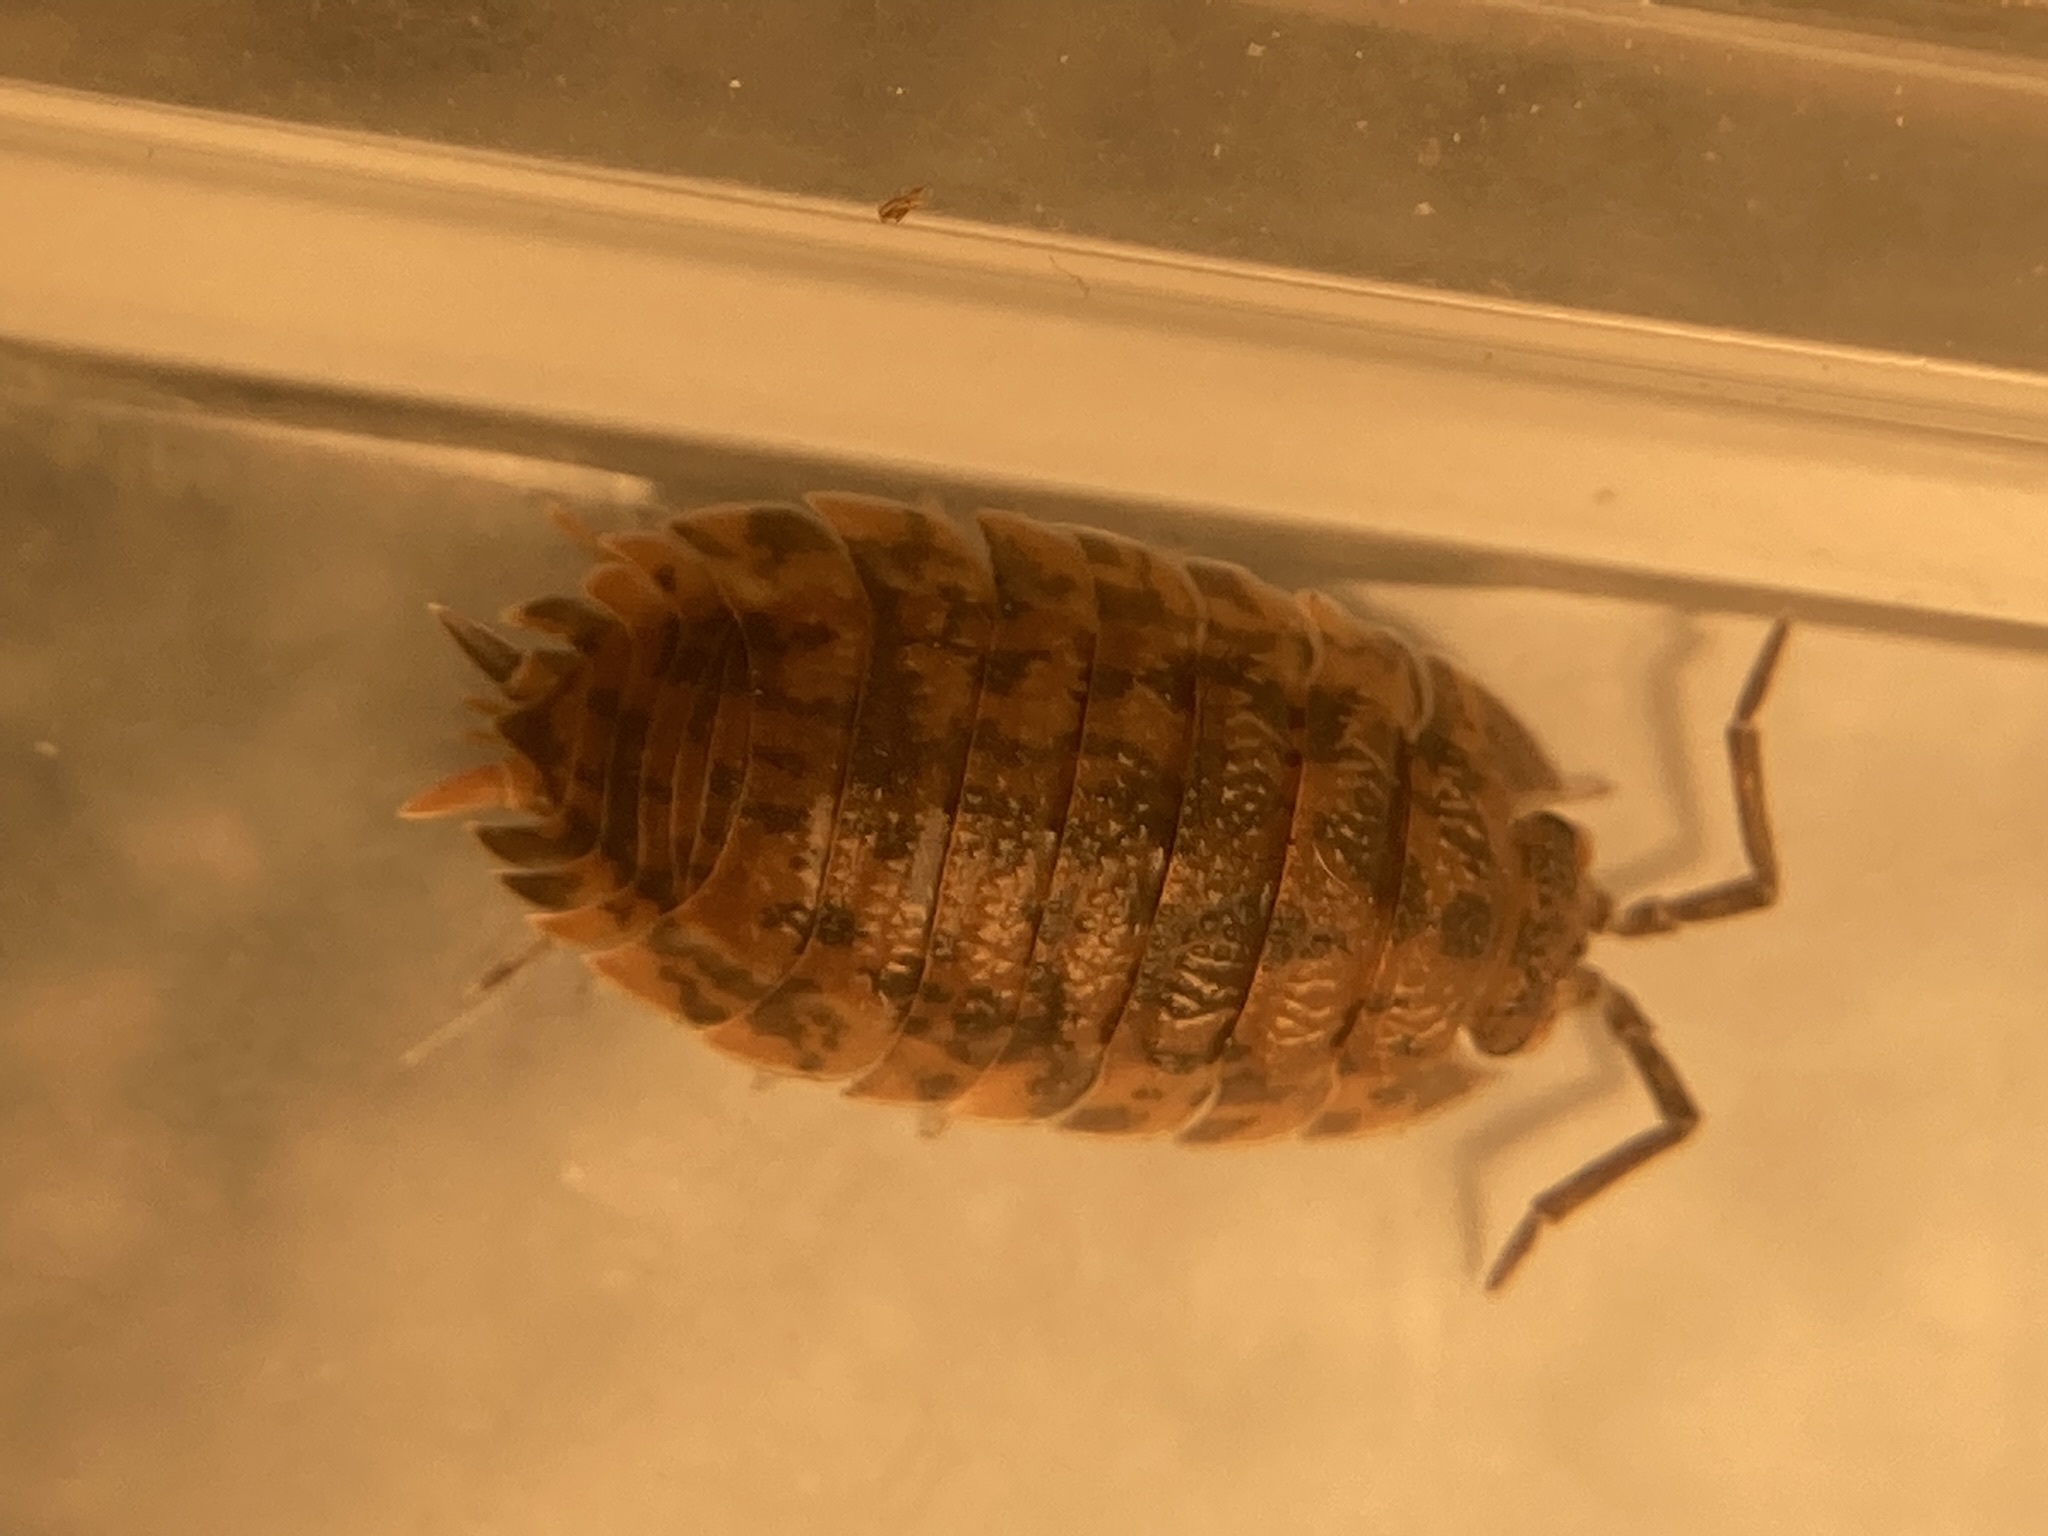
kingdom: Animalia
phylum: Arthropoda
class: Malacostraca
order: Isopoda
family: Porcellionidae
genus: Porcellio
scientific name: Porcellio scaber
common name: Common rough woodlouse
